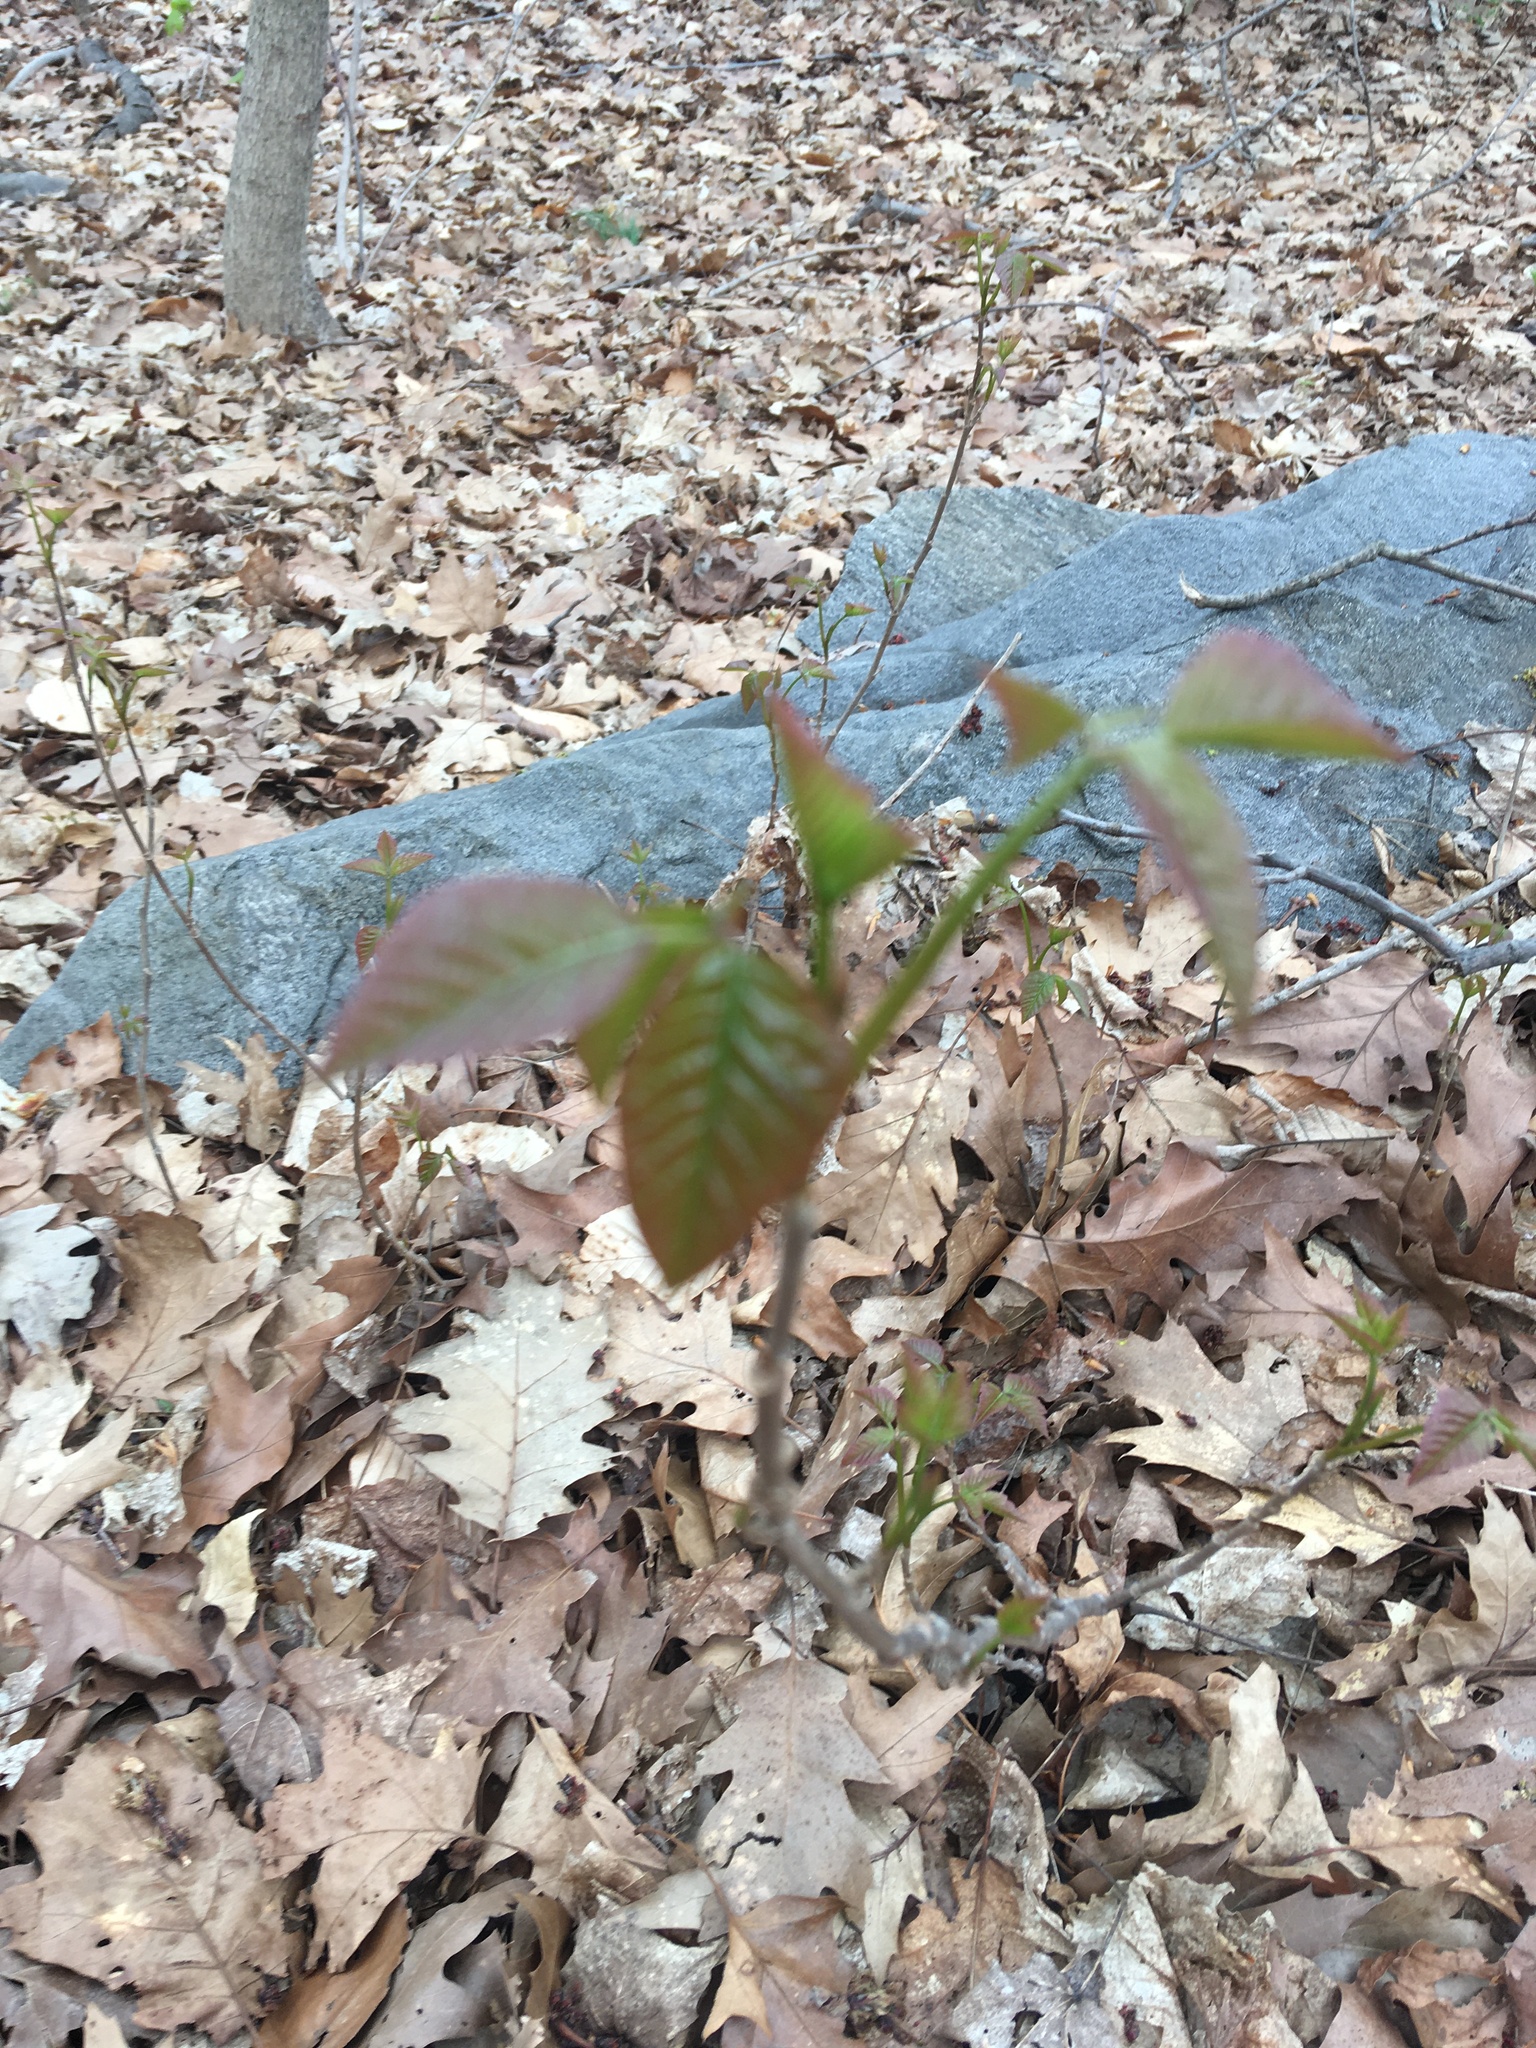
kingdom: Plantae
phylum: Tracheophyta
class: Magnoliopsida
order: Sapindales
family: Anacardiaceae
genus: Toxicodendron
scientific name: Toxicodendron radicans
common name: Poison ivy
